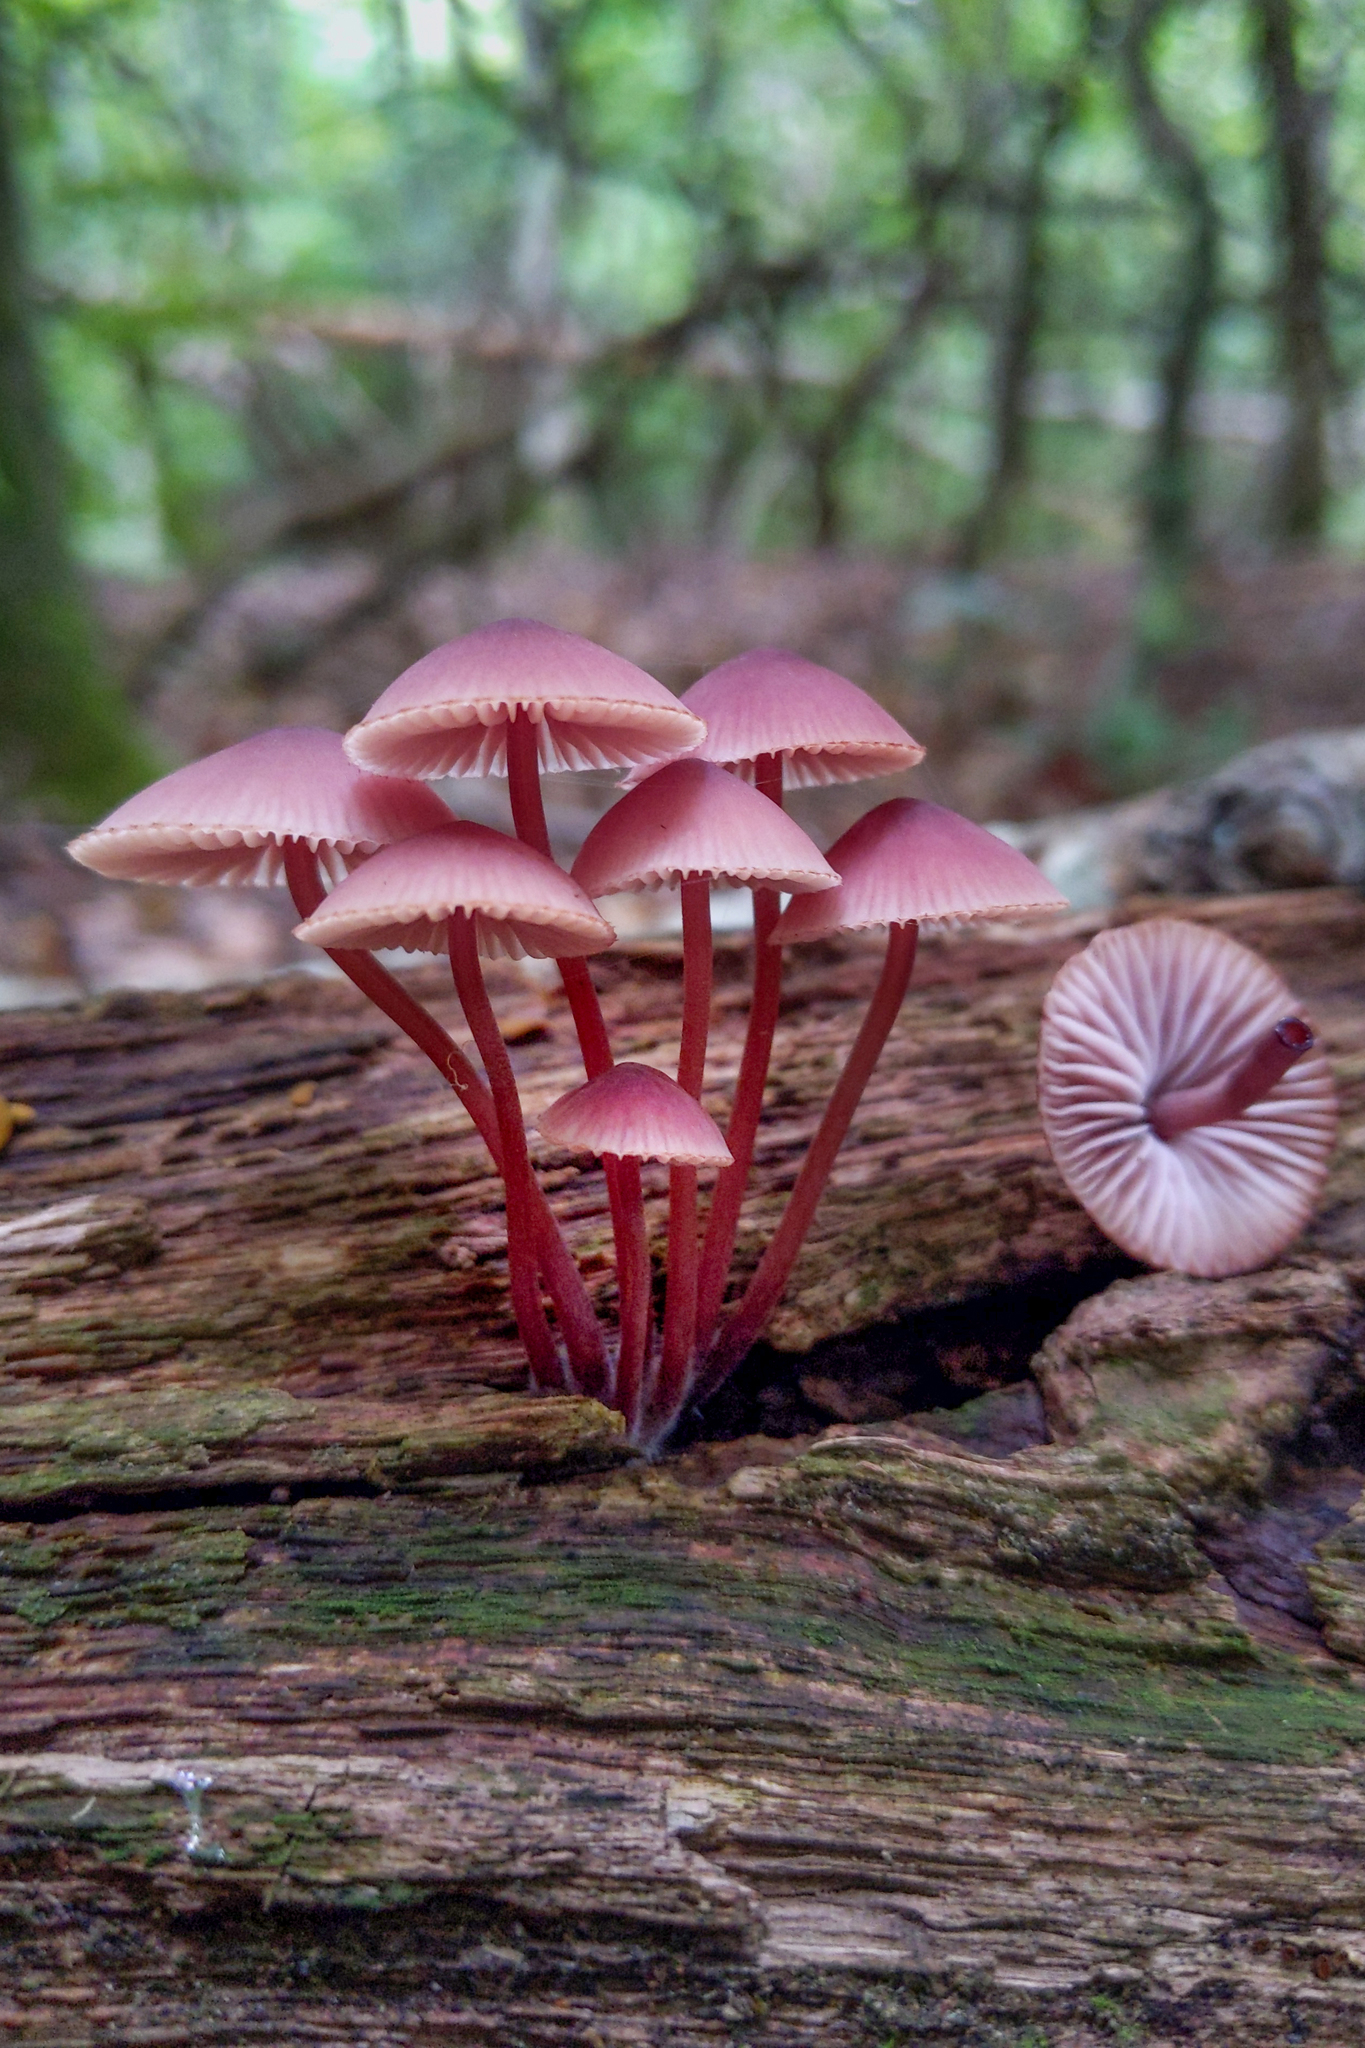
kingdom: Fungi
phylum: Basidiomycota
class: Agaricomycetes
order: Agaricales
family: Mycenaceae
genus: Mycena
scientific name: Mycena haematopus
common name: Burgundydrop bonnet
